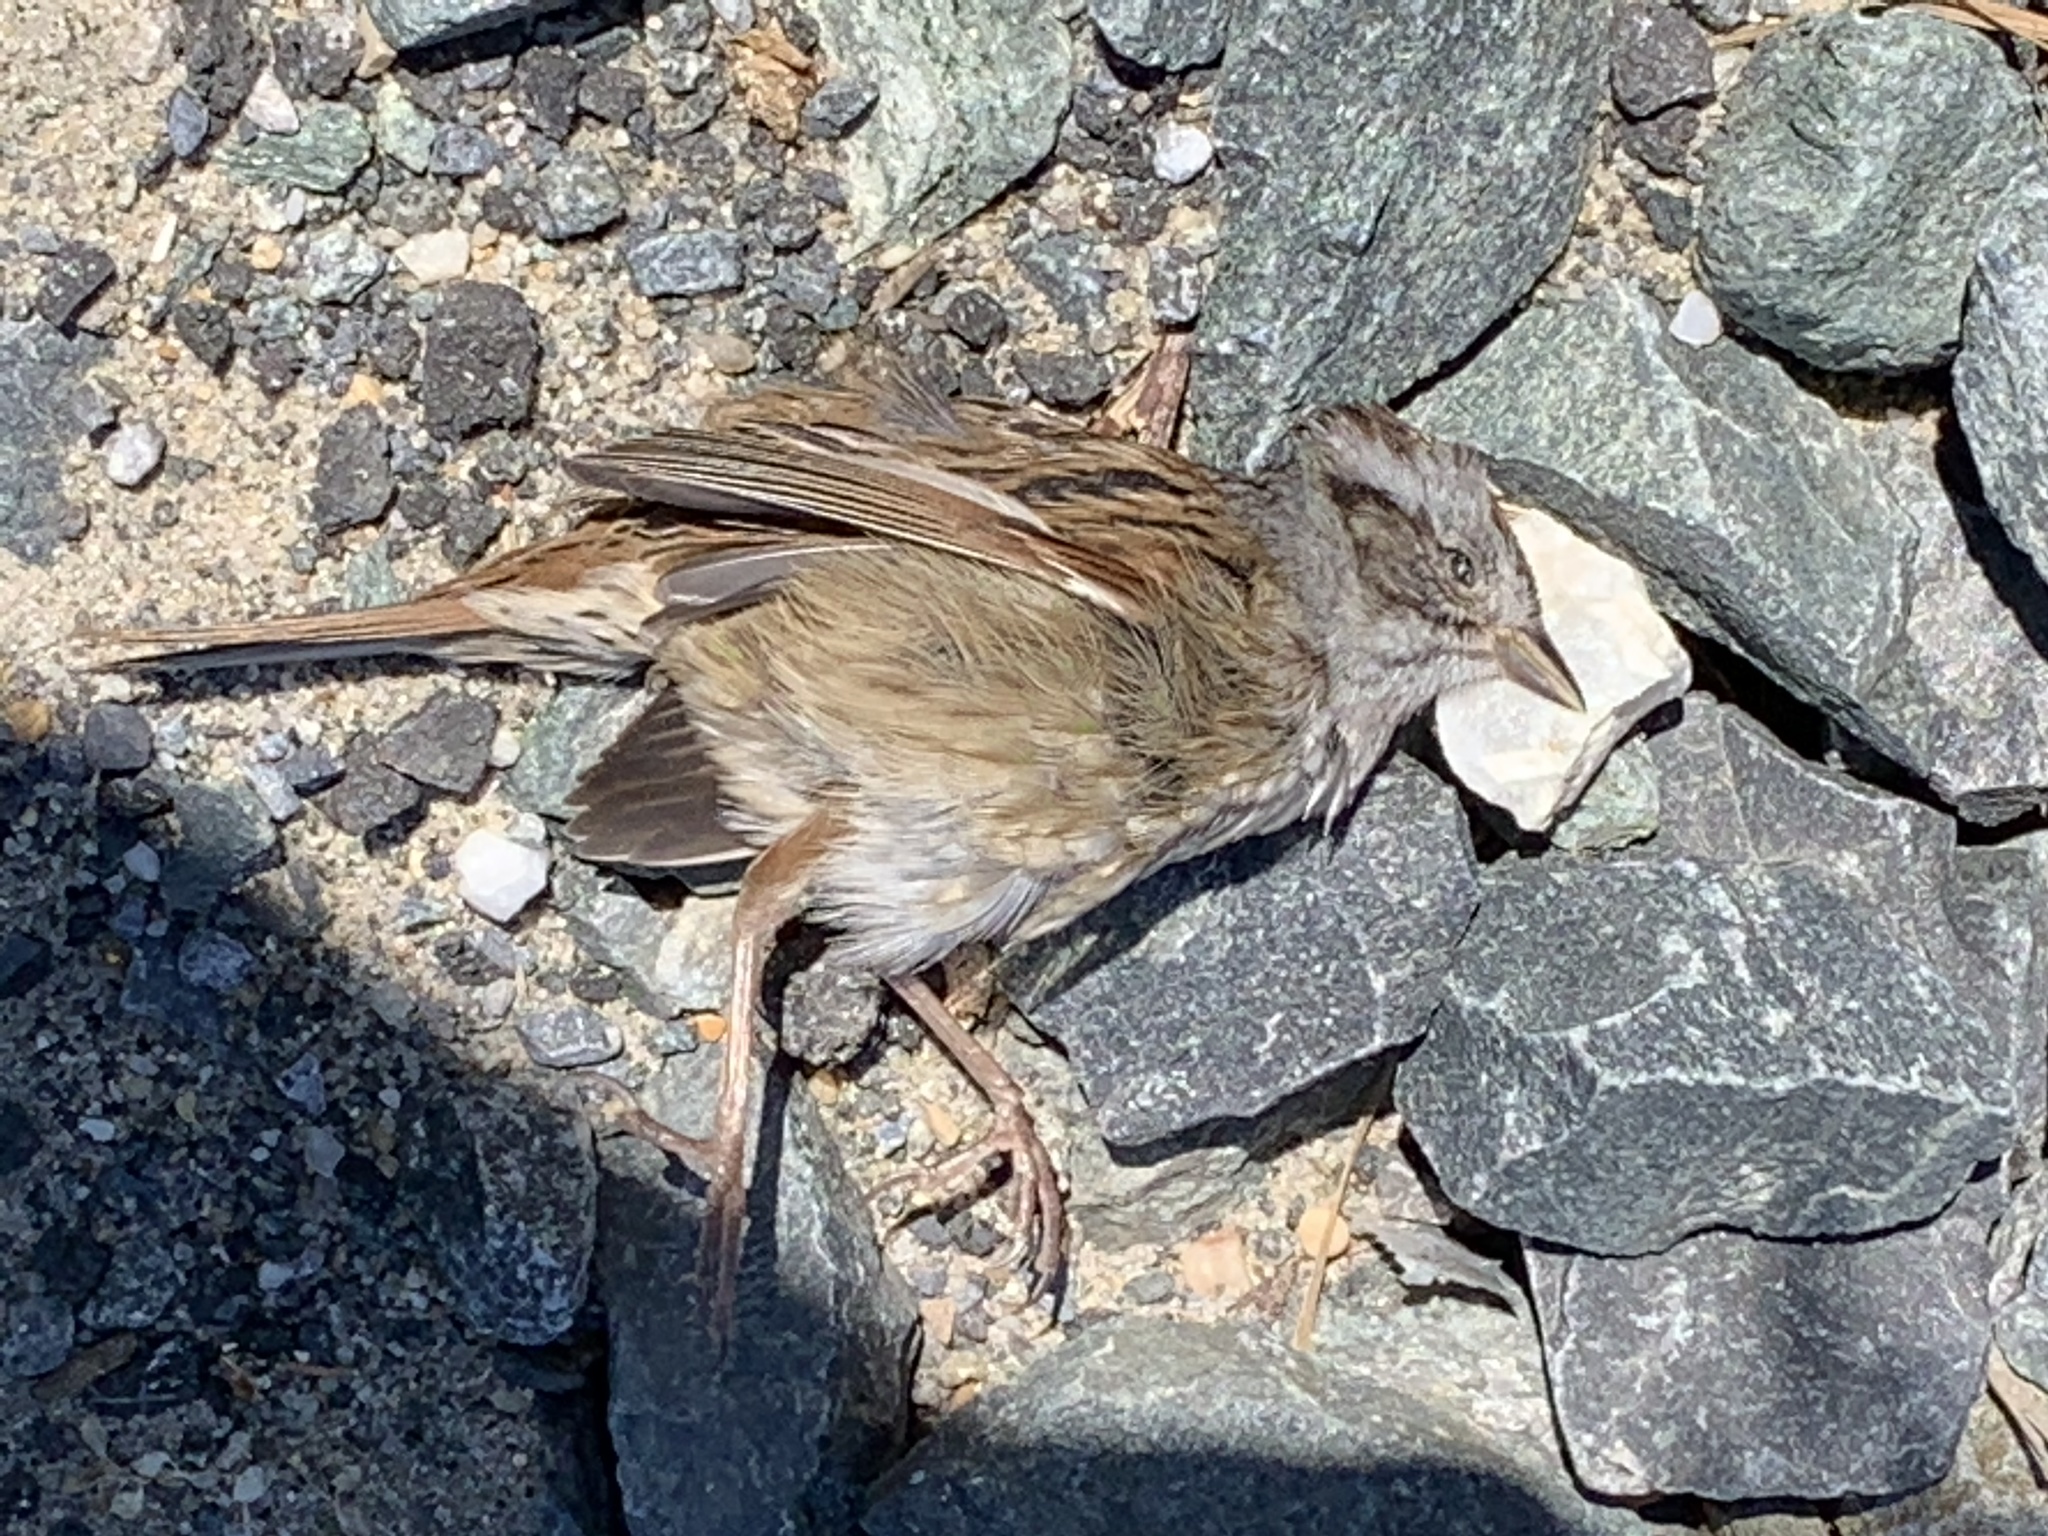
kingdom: Animalia
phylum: Chordata
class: Aves
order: Passeriformes
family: Passerellidae
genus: Melospiza
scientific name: Melospiza melodia
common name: Song sparrow
